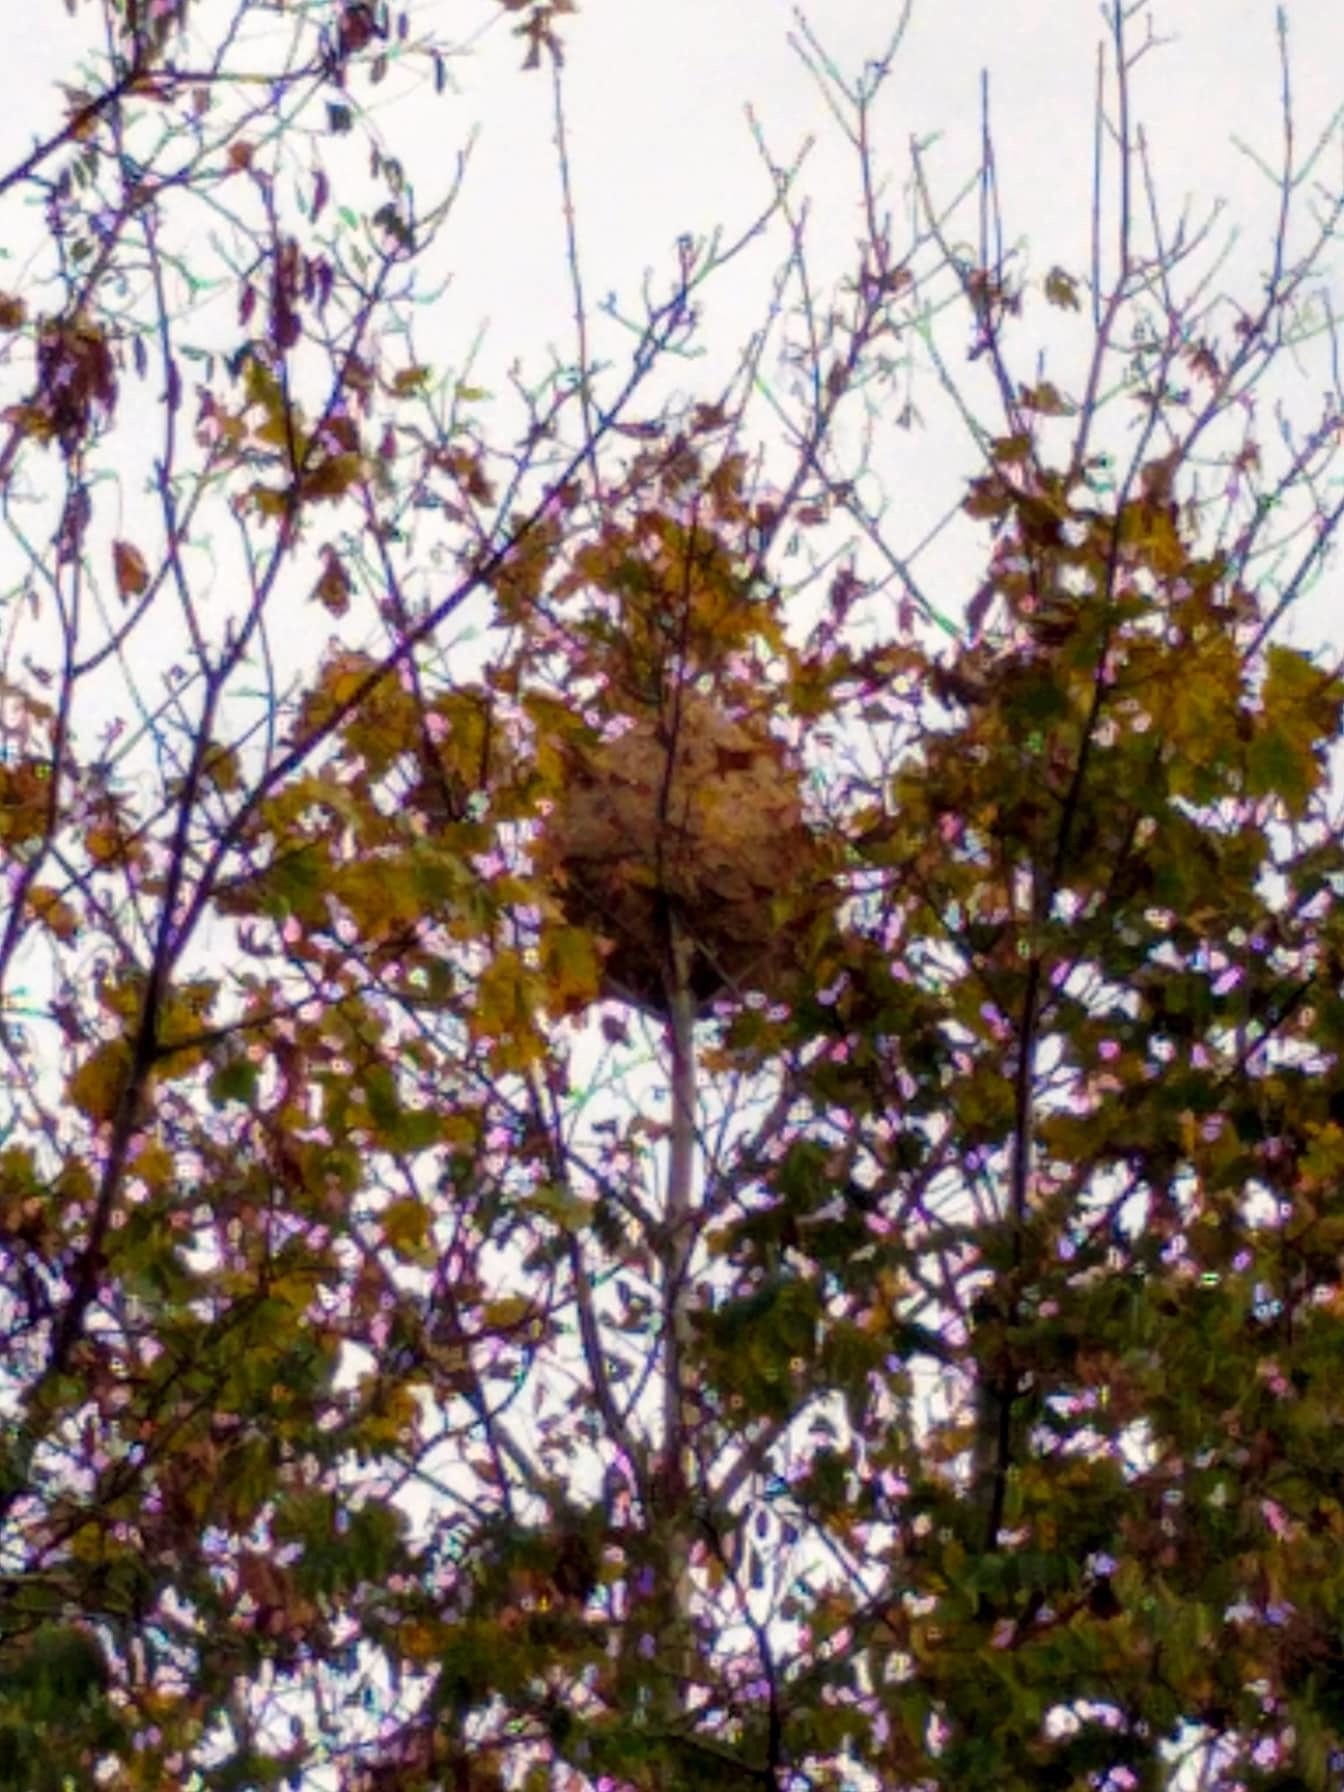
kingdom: Animalia
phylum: Arthropoda
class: Insecta
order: Hymenoptera
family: Vespidae
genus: Vespa
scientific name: Vespa velutina
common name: Asian hornet
